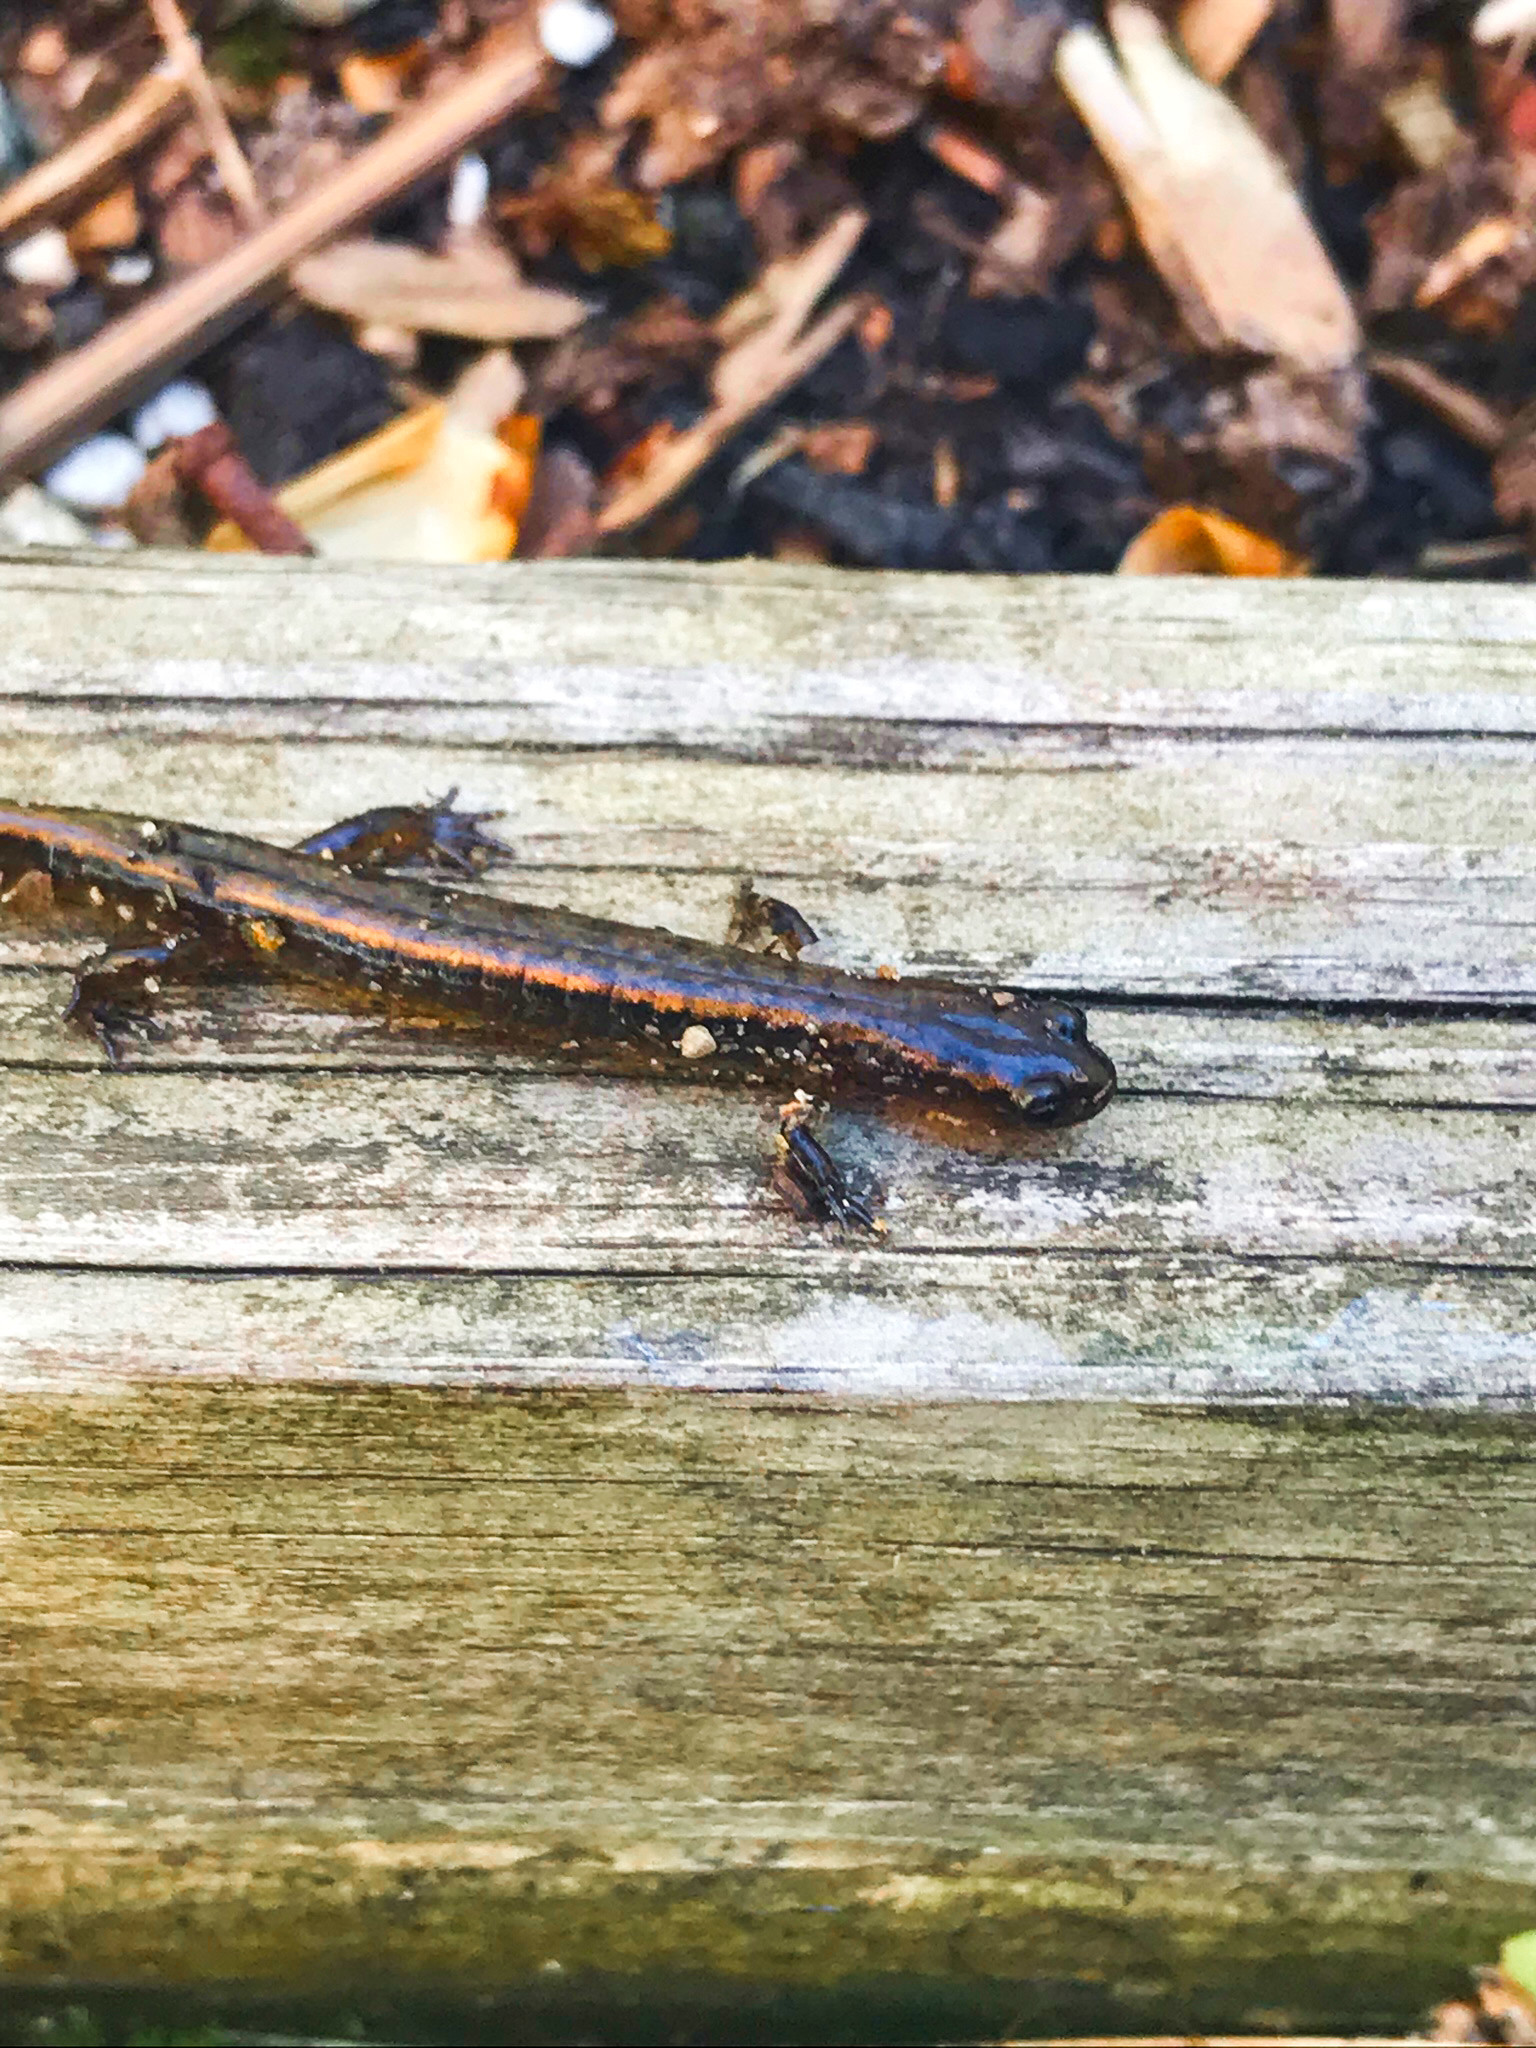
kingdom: Animalia
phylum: Chordata
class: Amphibia
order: Caudata
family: Plethodontidae
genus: Eurycea
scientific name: Eurycea bislineata
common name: Northern two-lined salamander
